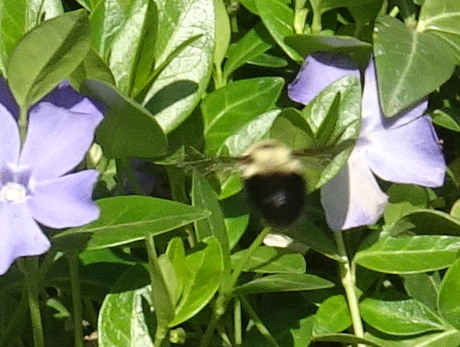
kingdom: Animalia
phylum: Arthropoda
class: Insecta
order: Hymenoptera
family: Apidae
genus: Bombus
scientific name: Bombus bimaculatus
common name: Two-spotted bumble bee
